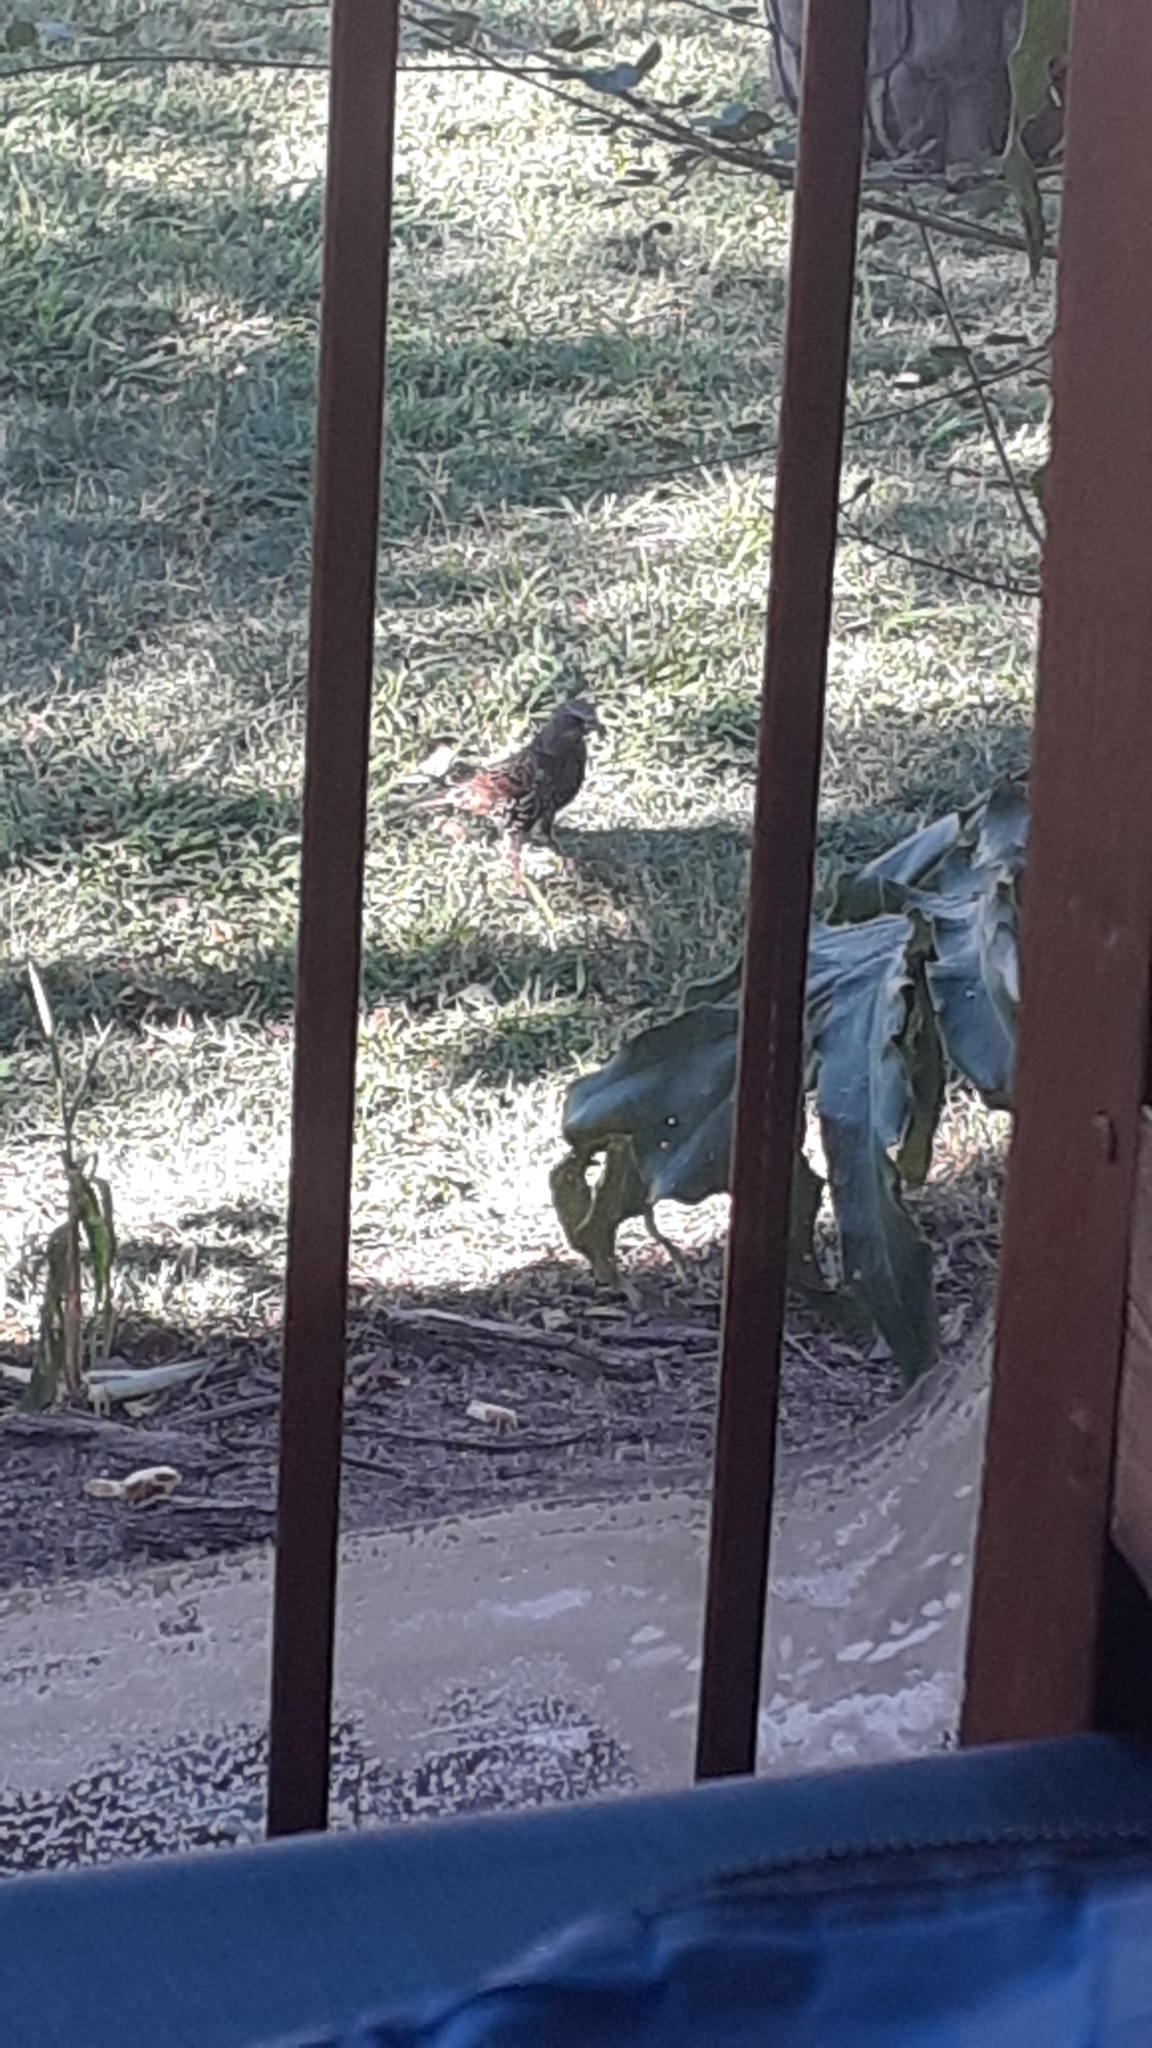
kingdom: Animalia
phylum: Chordata
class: Aves
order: Passeriformes
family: Sturnidae
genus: Sturnus
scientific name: Sturnus vulgaris
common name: Common starling
